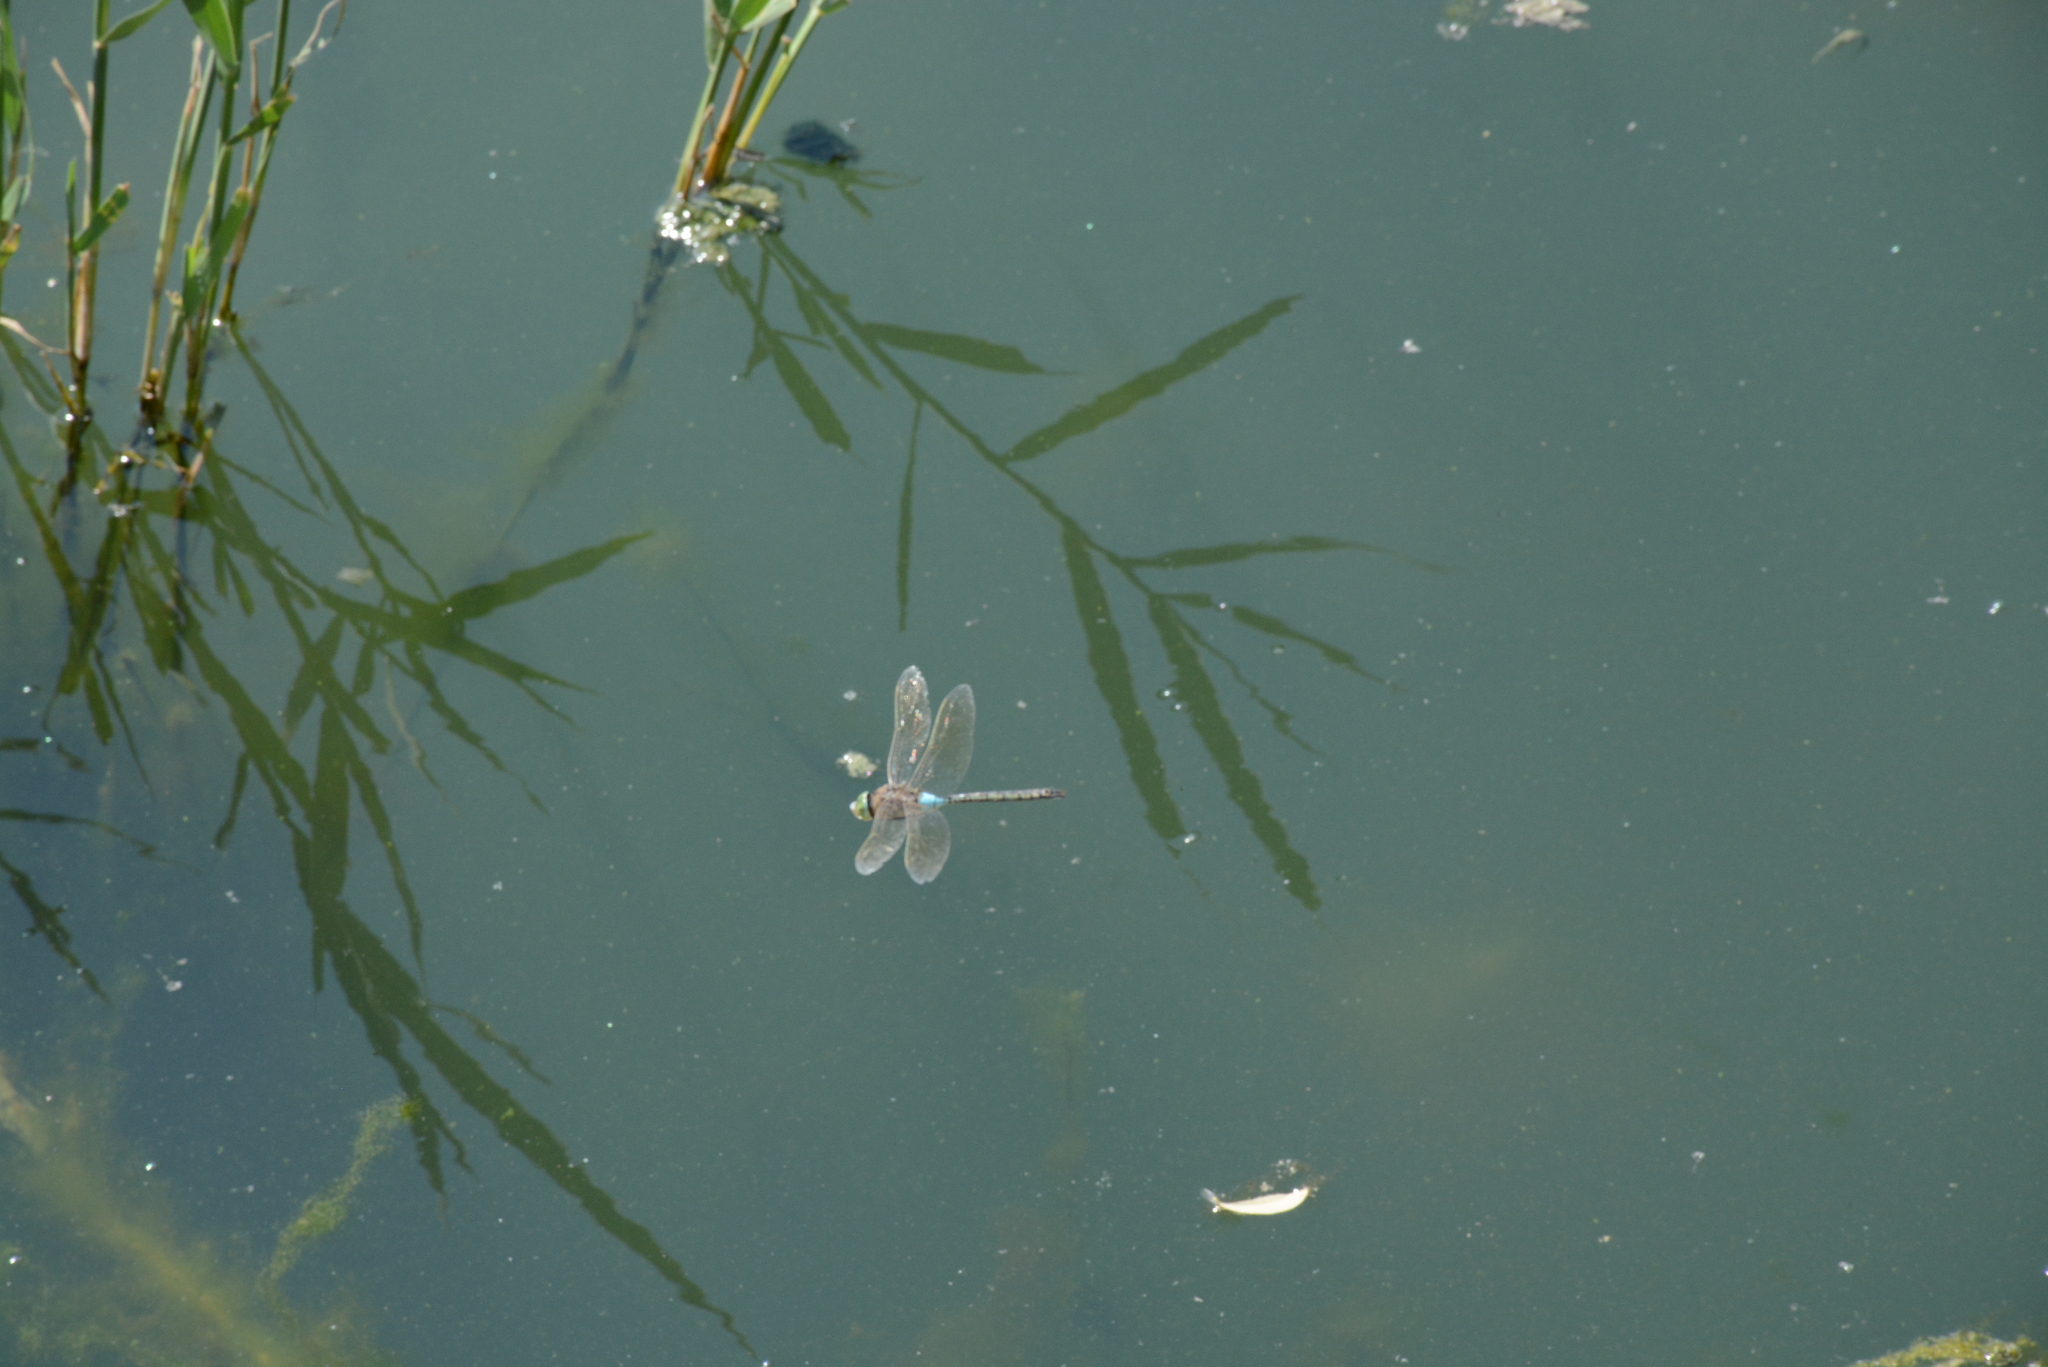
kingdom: Animalia
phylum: Arthropoda
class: Insecta
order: Odonata
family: Aeshnidae
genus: Anax
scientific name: Anax parthenope
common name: Lesser emperor
